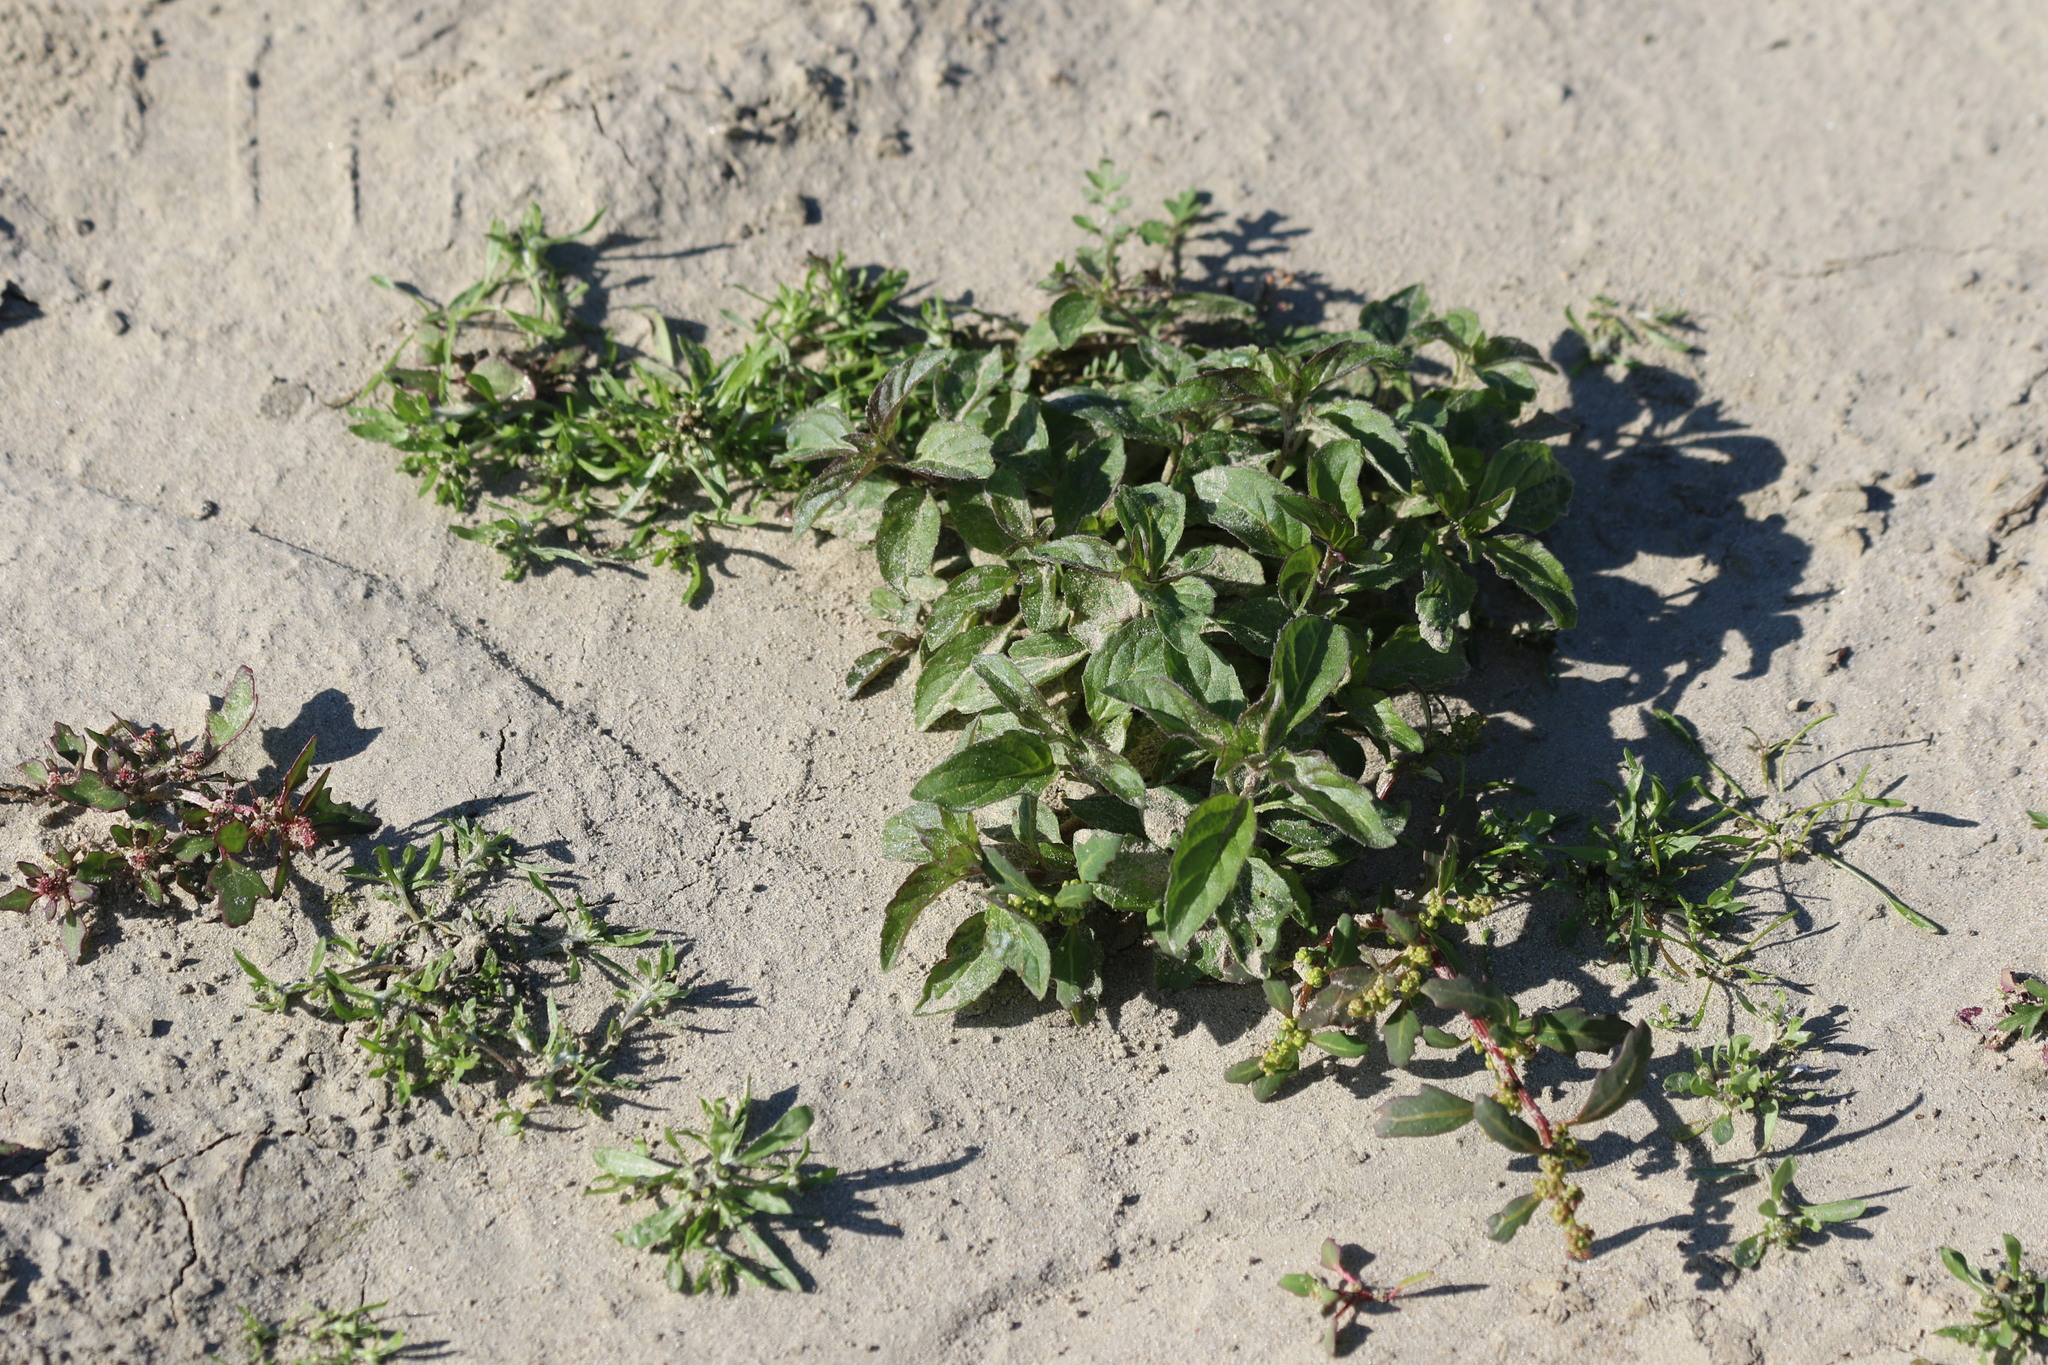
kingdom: Plantae
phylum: Tracheophyta
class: Magnoliopsida
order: Lamiales
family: Lamiaceae
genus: Mentha
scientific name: Mentha arvensis
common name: Corn mint
